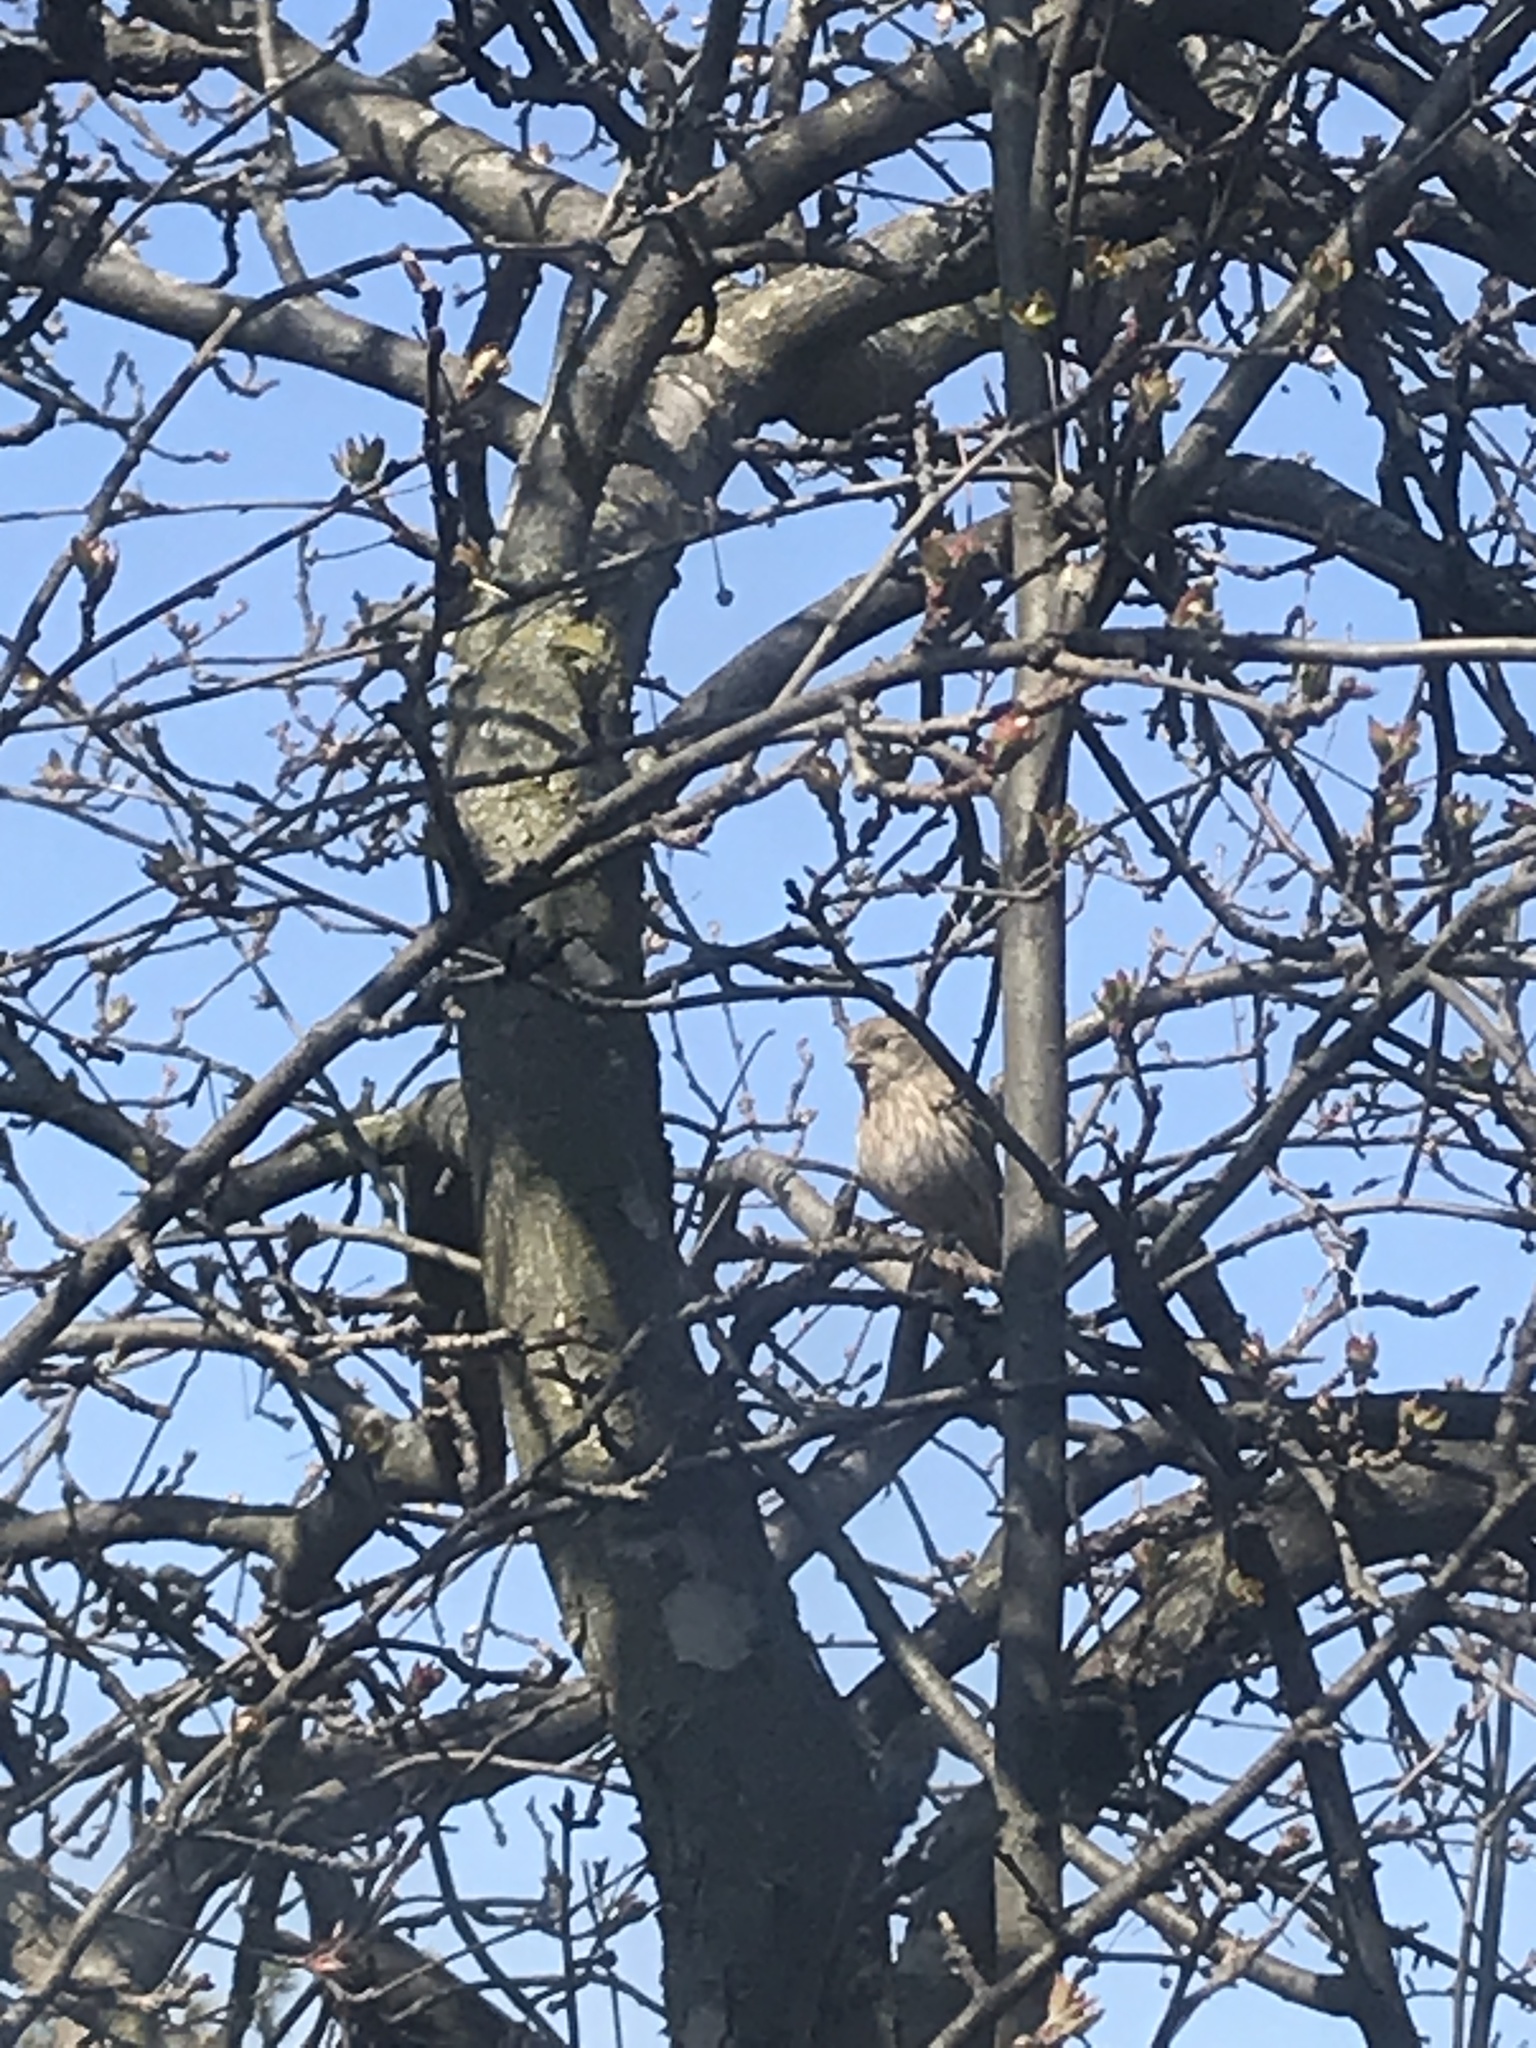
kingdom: Animalia
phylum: Chordata
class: Aves
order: Passeriformes
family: Fringillidae
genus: Haemorhous
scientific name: Haemorhous mexicanus
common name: House finch
